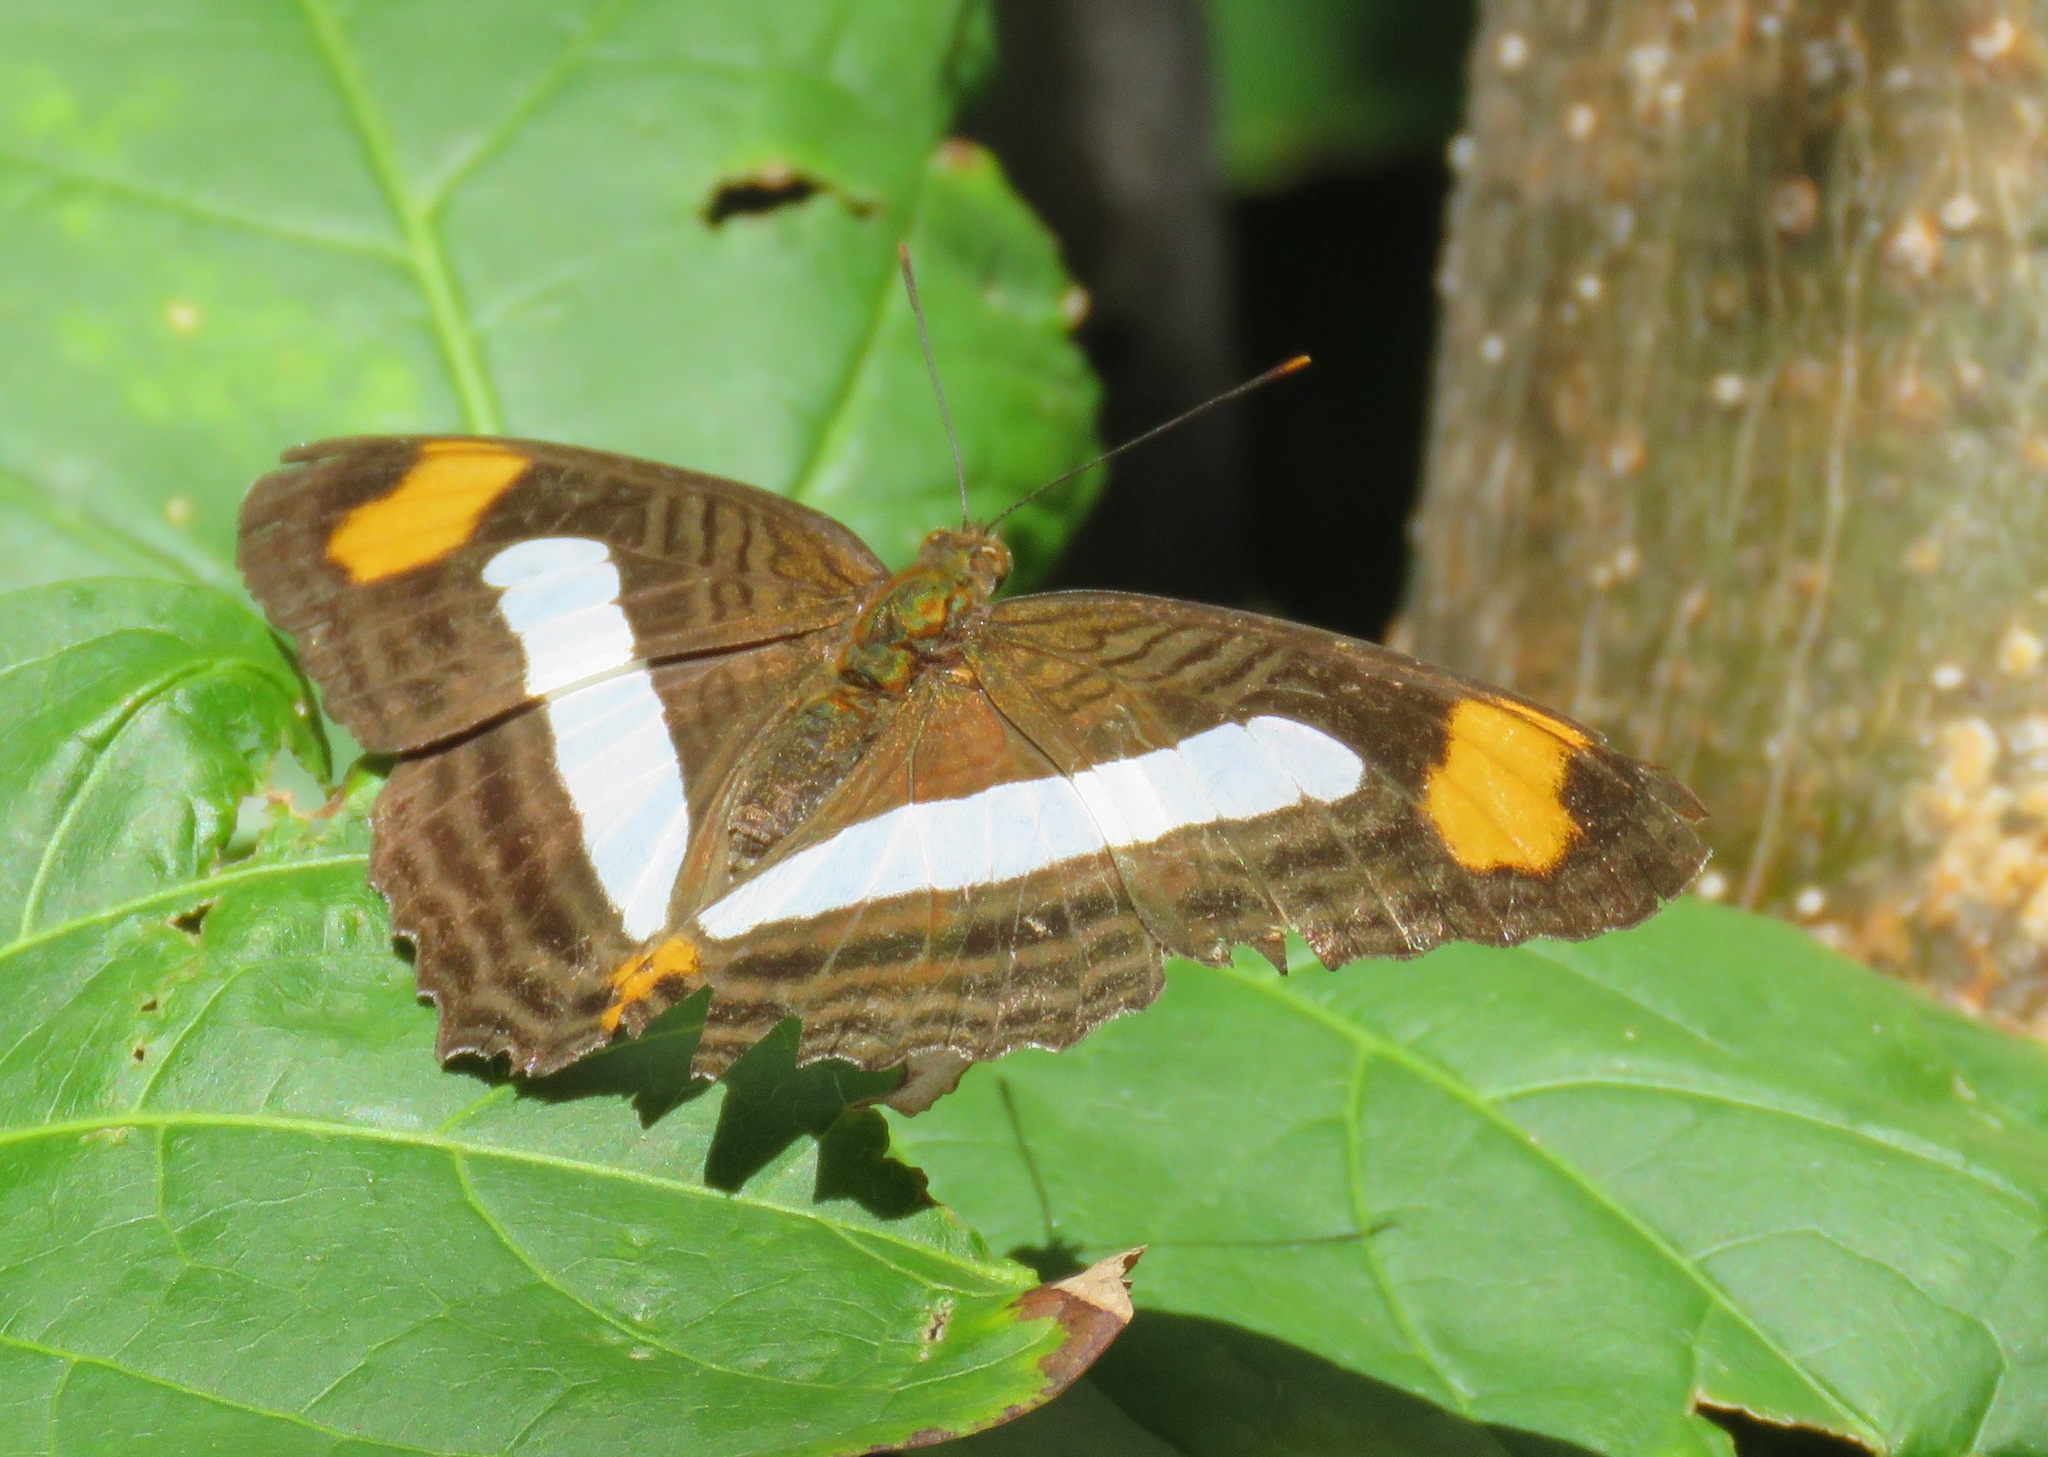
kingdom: Animalia
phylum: Arthropoda
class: Insecta
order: Lepidoptera
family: Nymphalidae
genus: Limenitis
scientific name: Limenitis iphiclus
